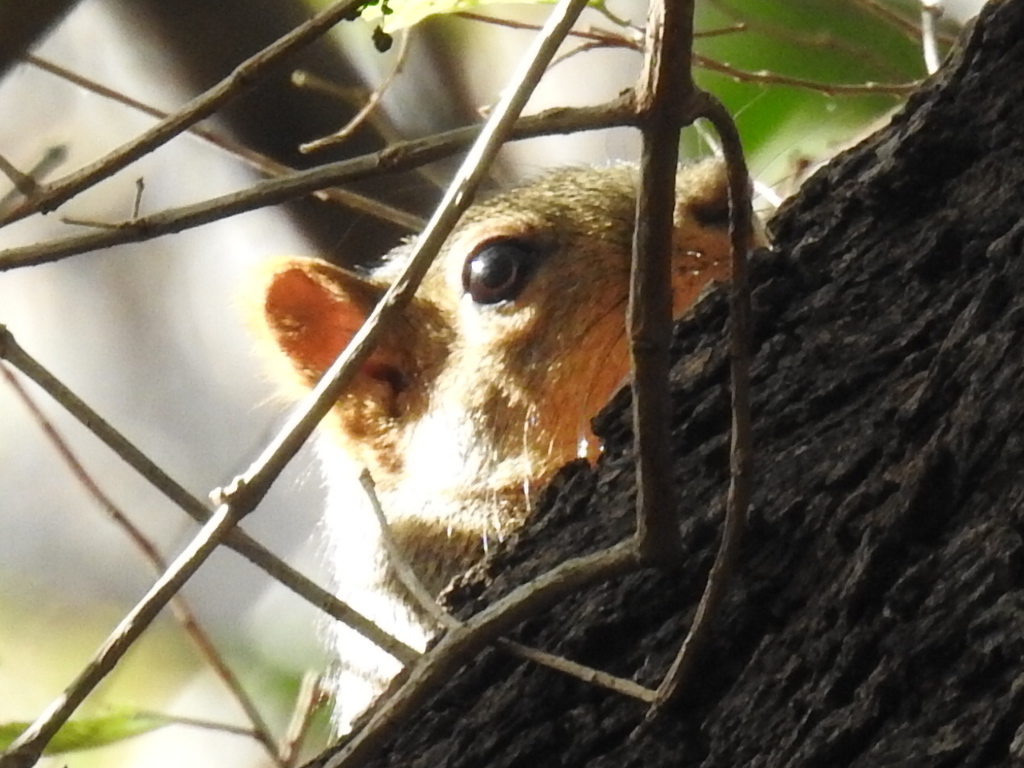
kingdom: Animalia
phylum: Chordata
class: Mammalia
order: Rodentia
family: Sciuridae
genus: Sciurus
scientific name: Sciurus niger
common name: Fox squirrel
